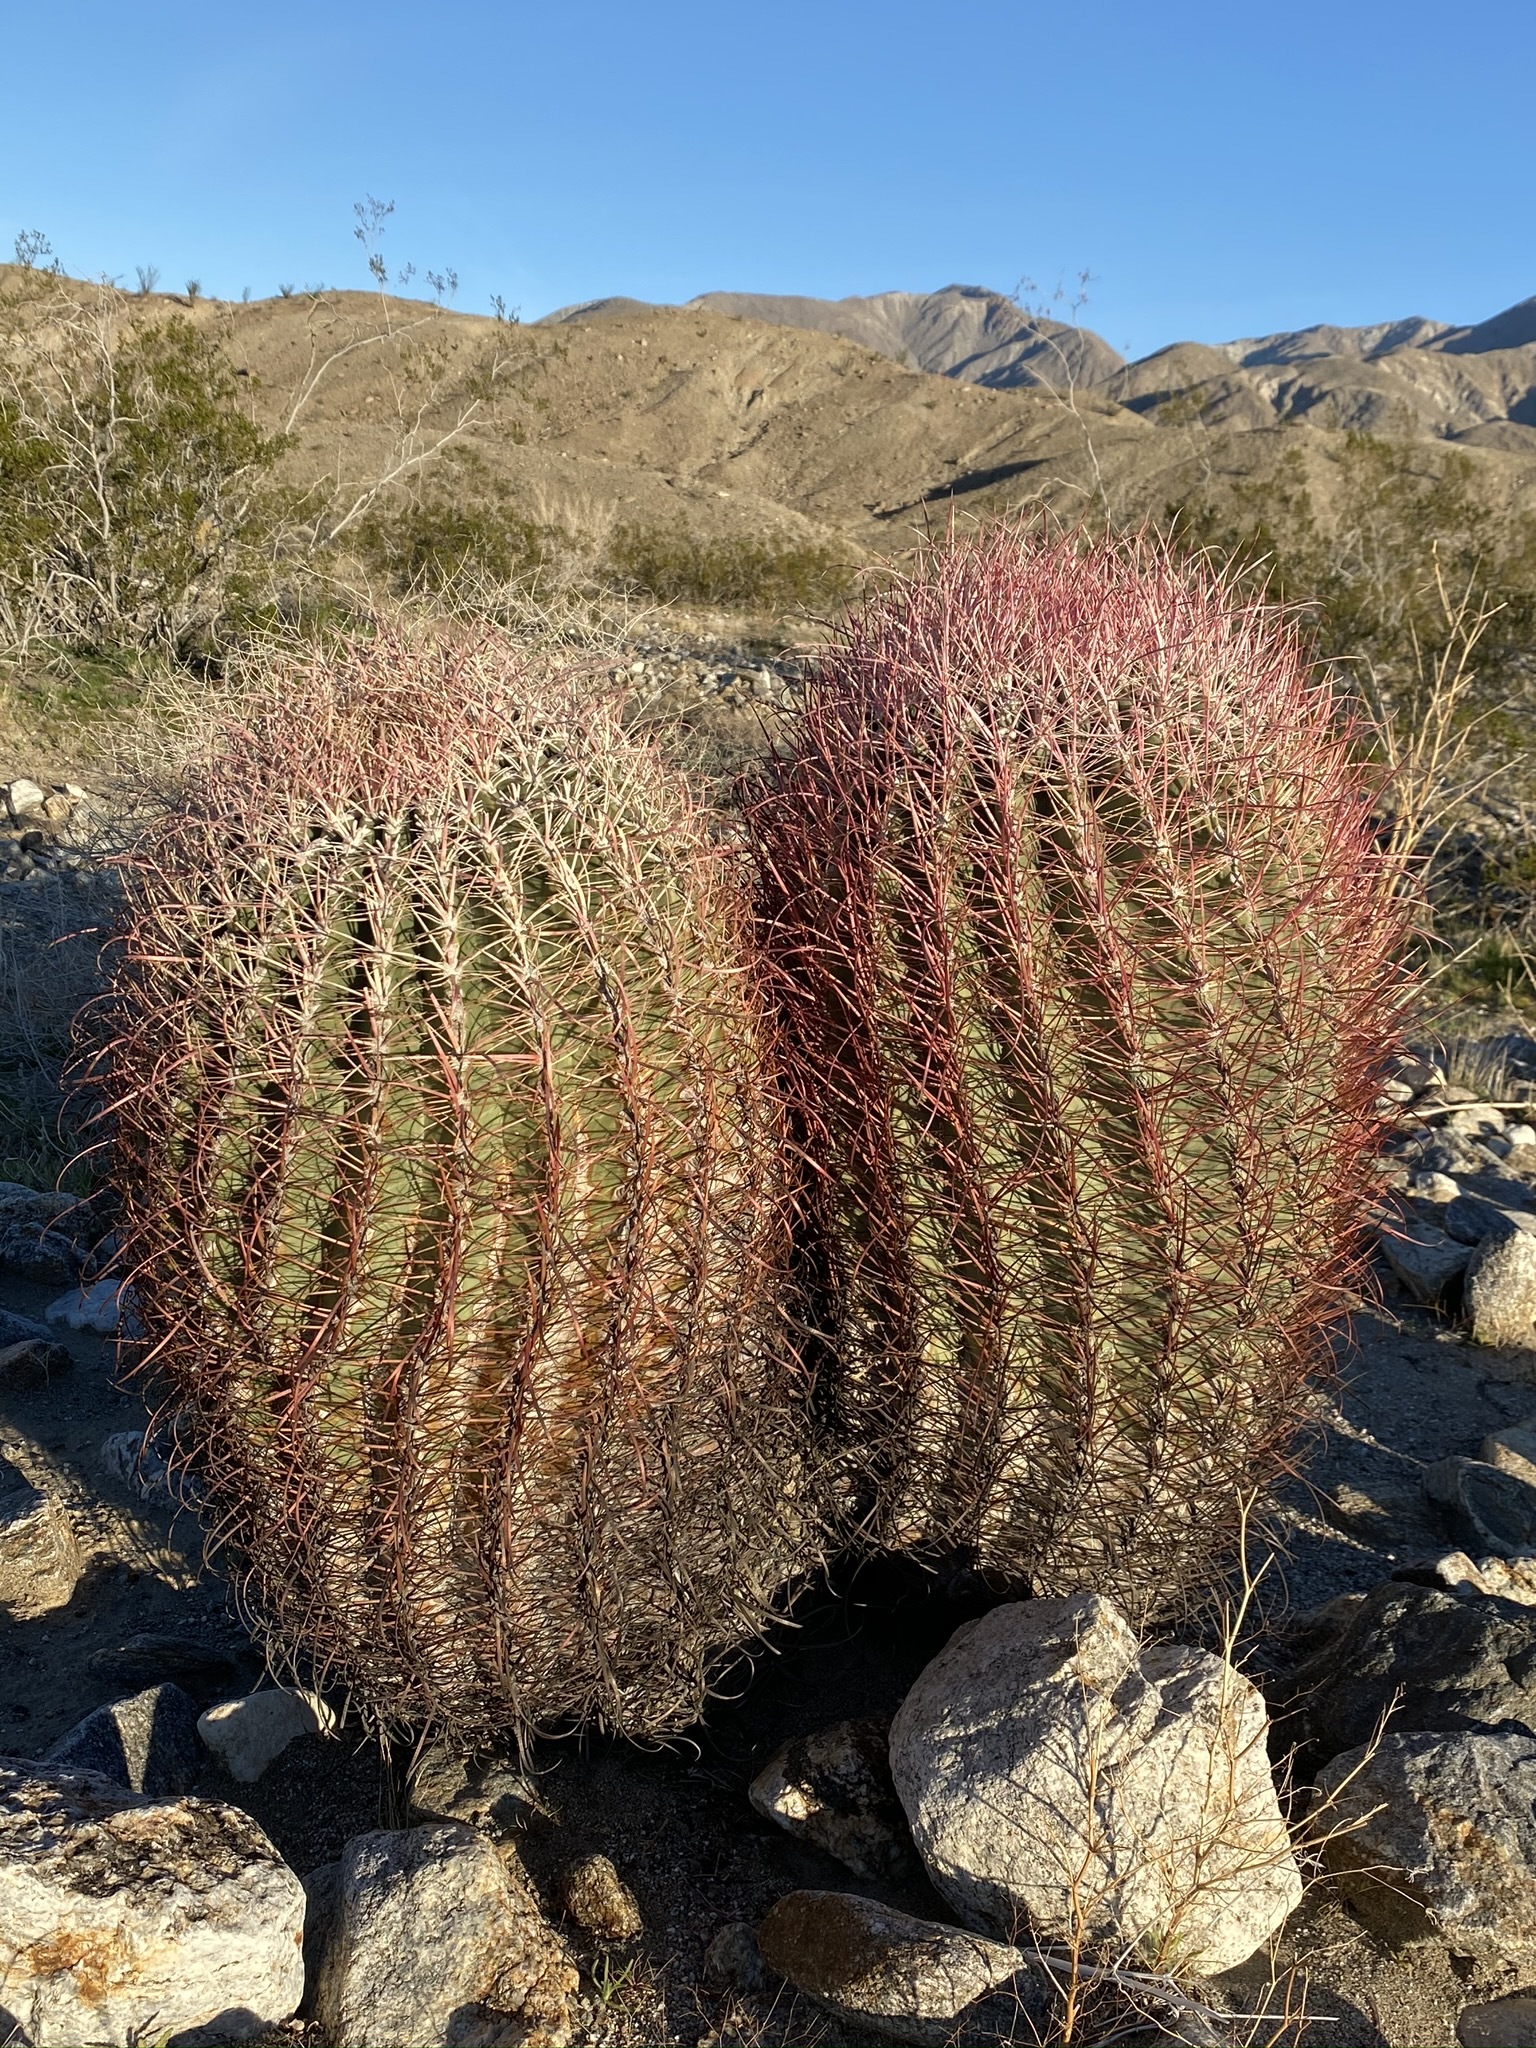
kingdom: Plantae
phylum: Tracheophyta
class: Magnoliopsida
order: Caryophyllales
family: Cactaceae
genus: Ferocactus
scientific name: Ferocactus cylindraceus
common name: California barrel cactus
